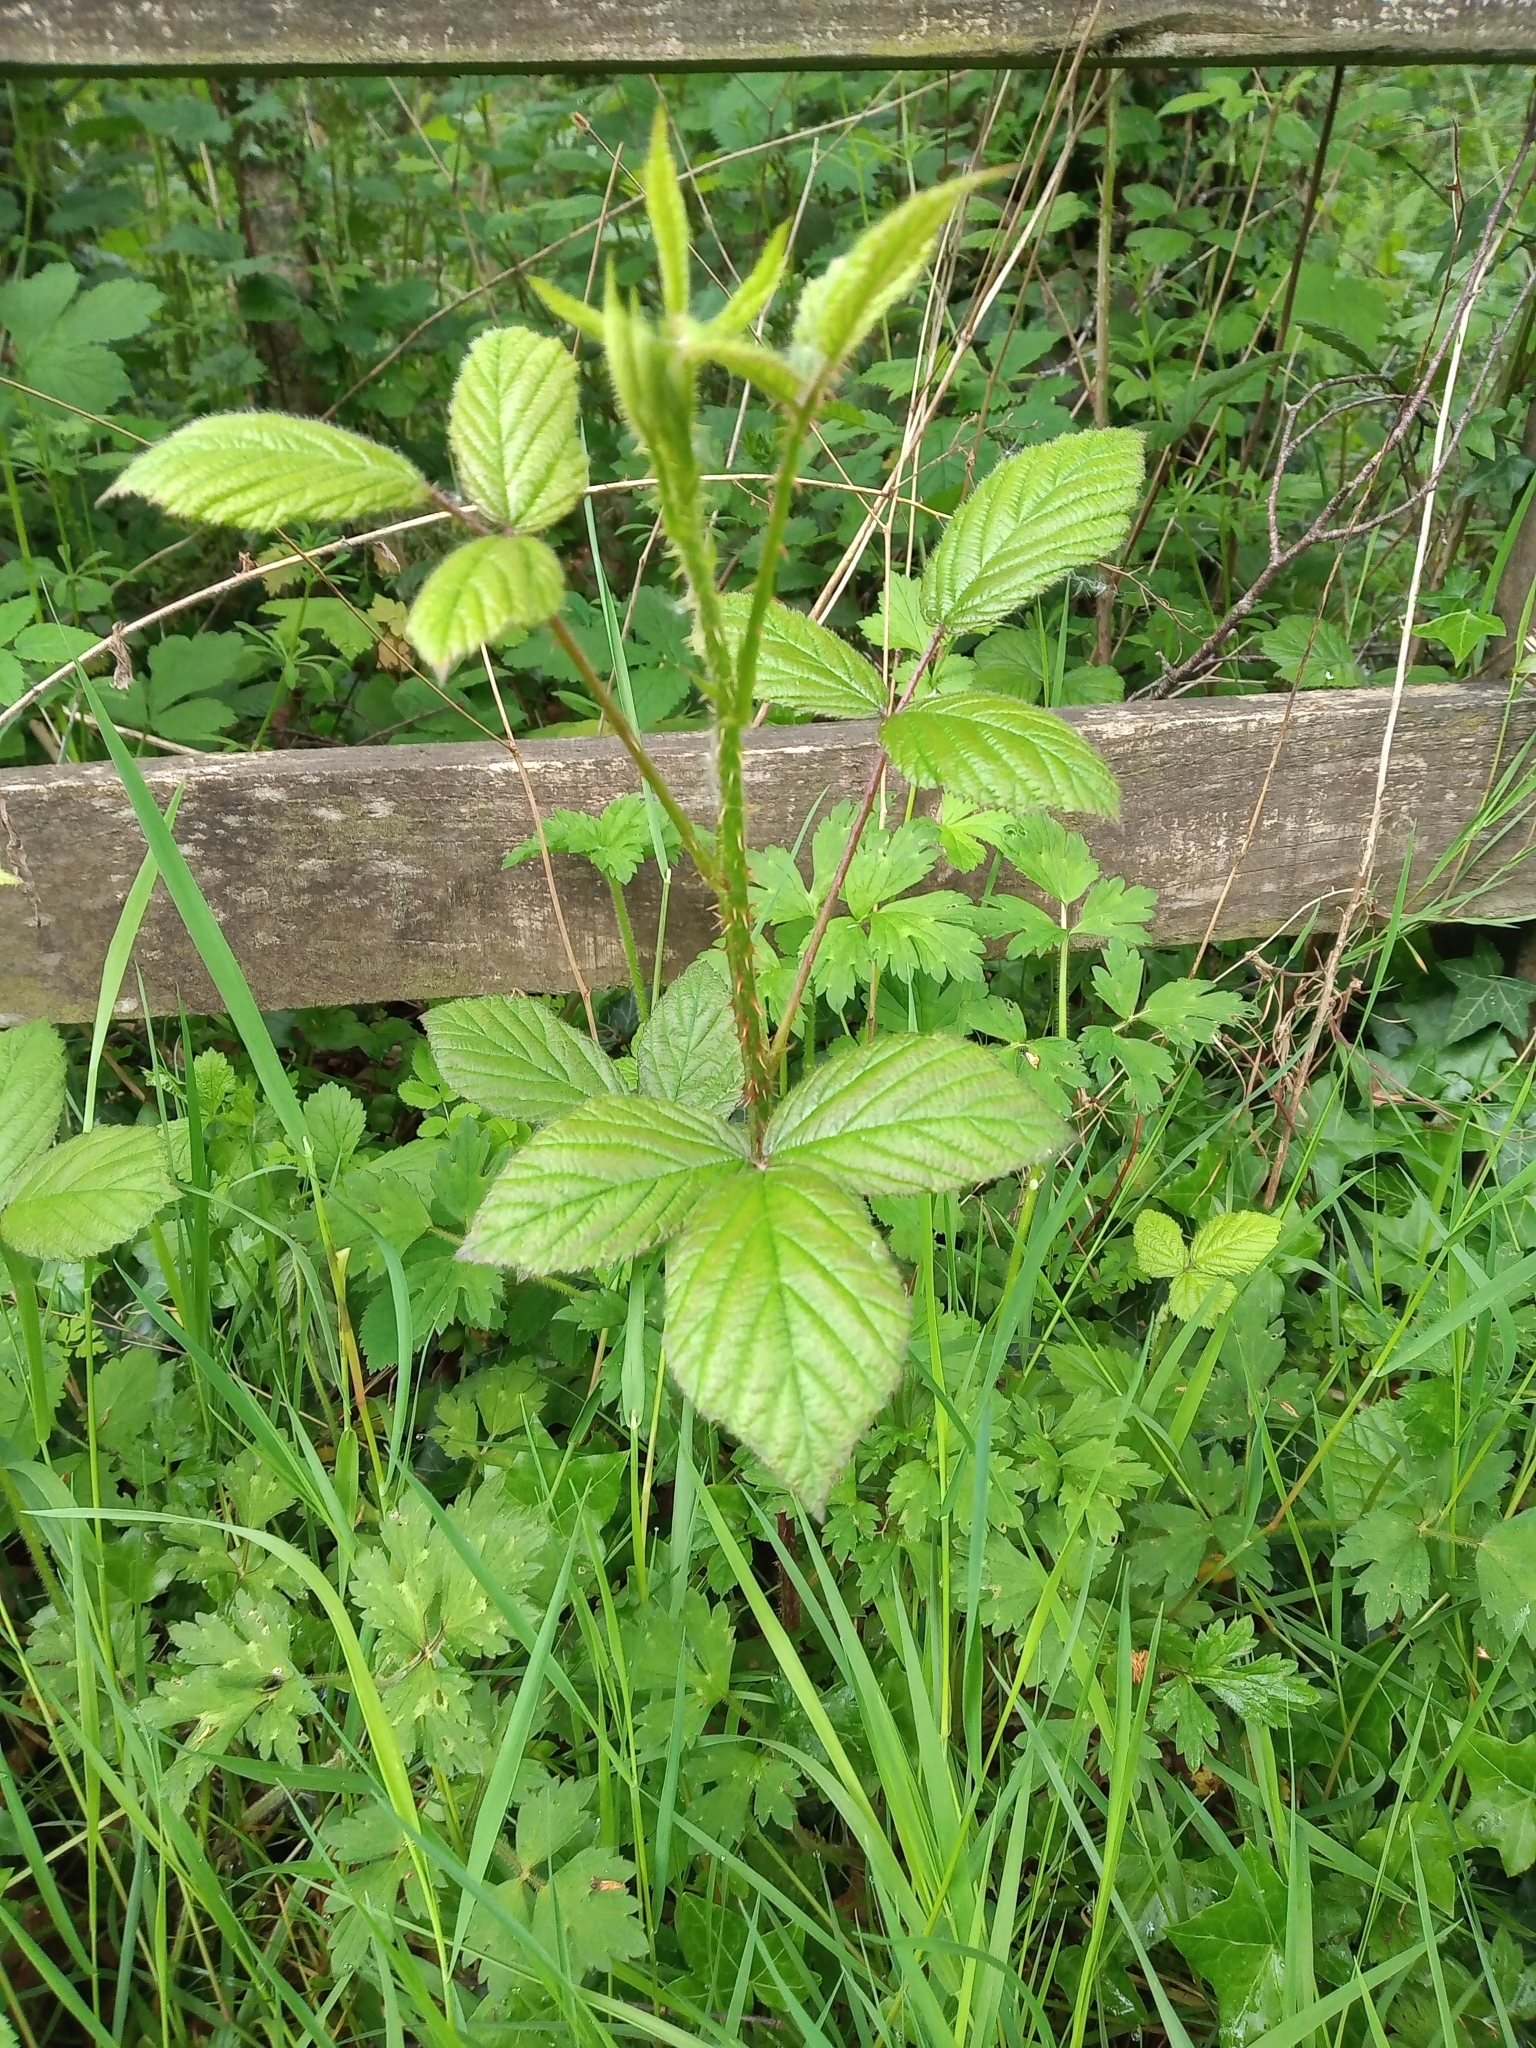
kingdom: Plantae
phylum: Tracheophyta
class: Magnoliopsida
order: Rosales
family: Rosaceae
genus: Rubus
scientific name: Rubus newbouldii
